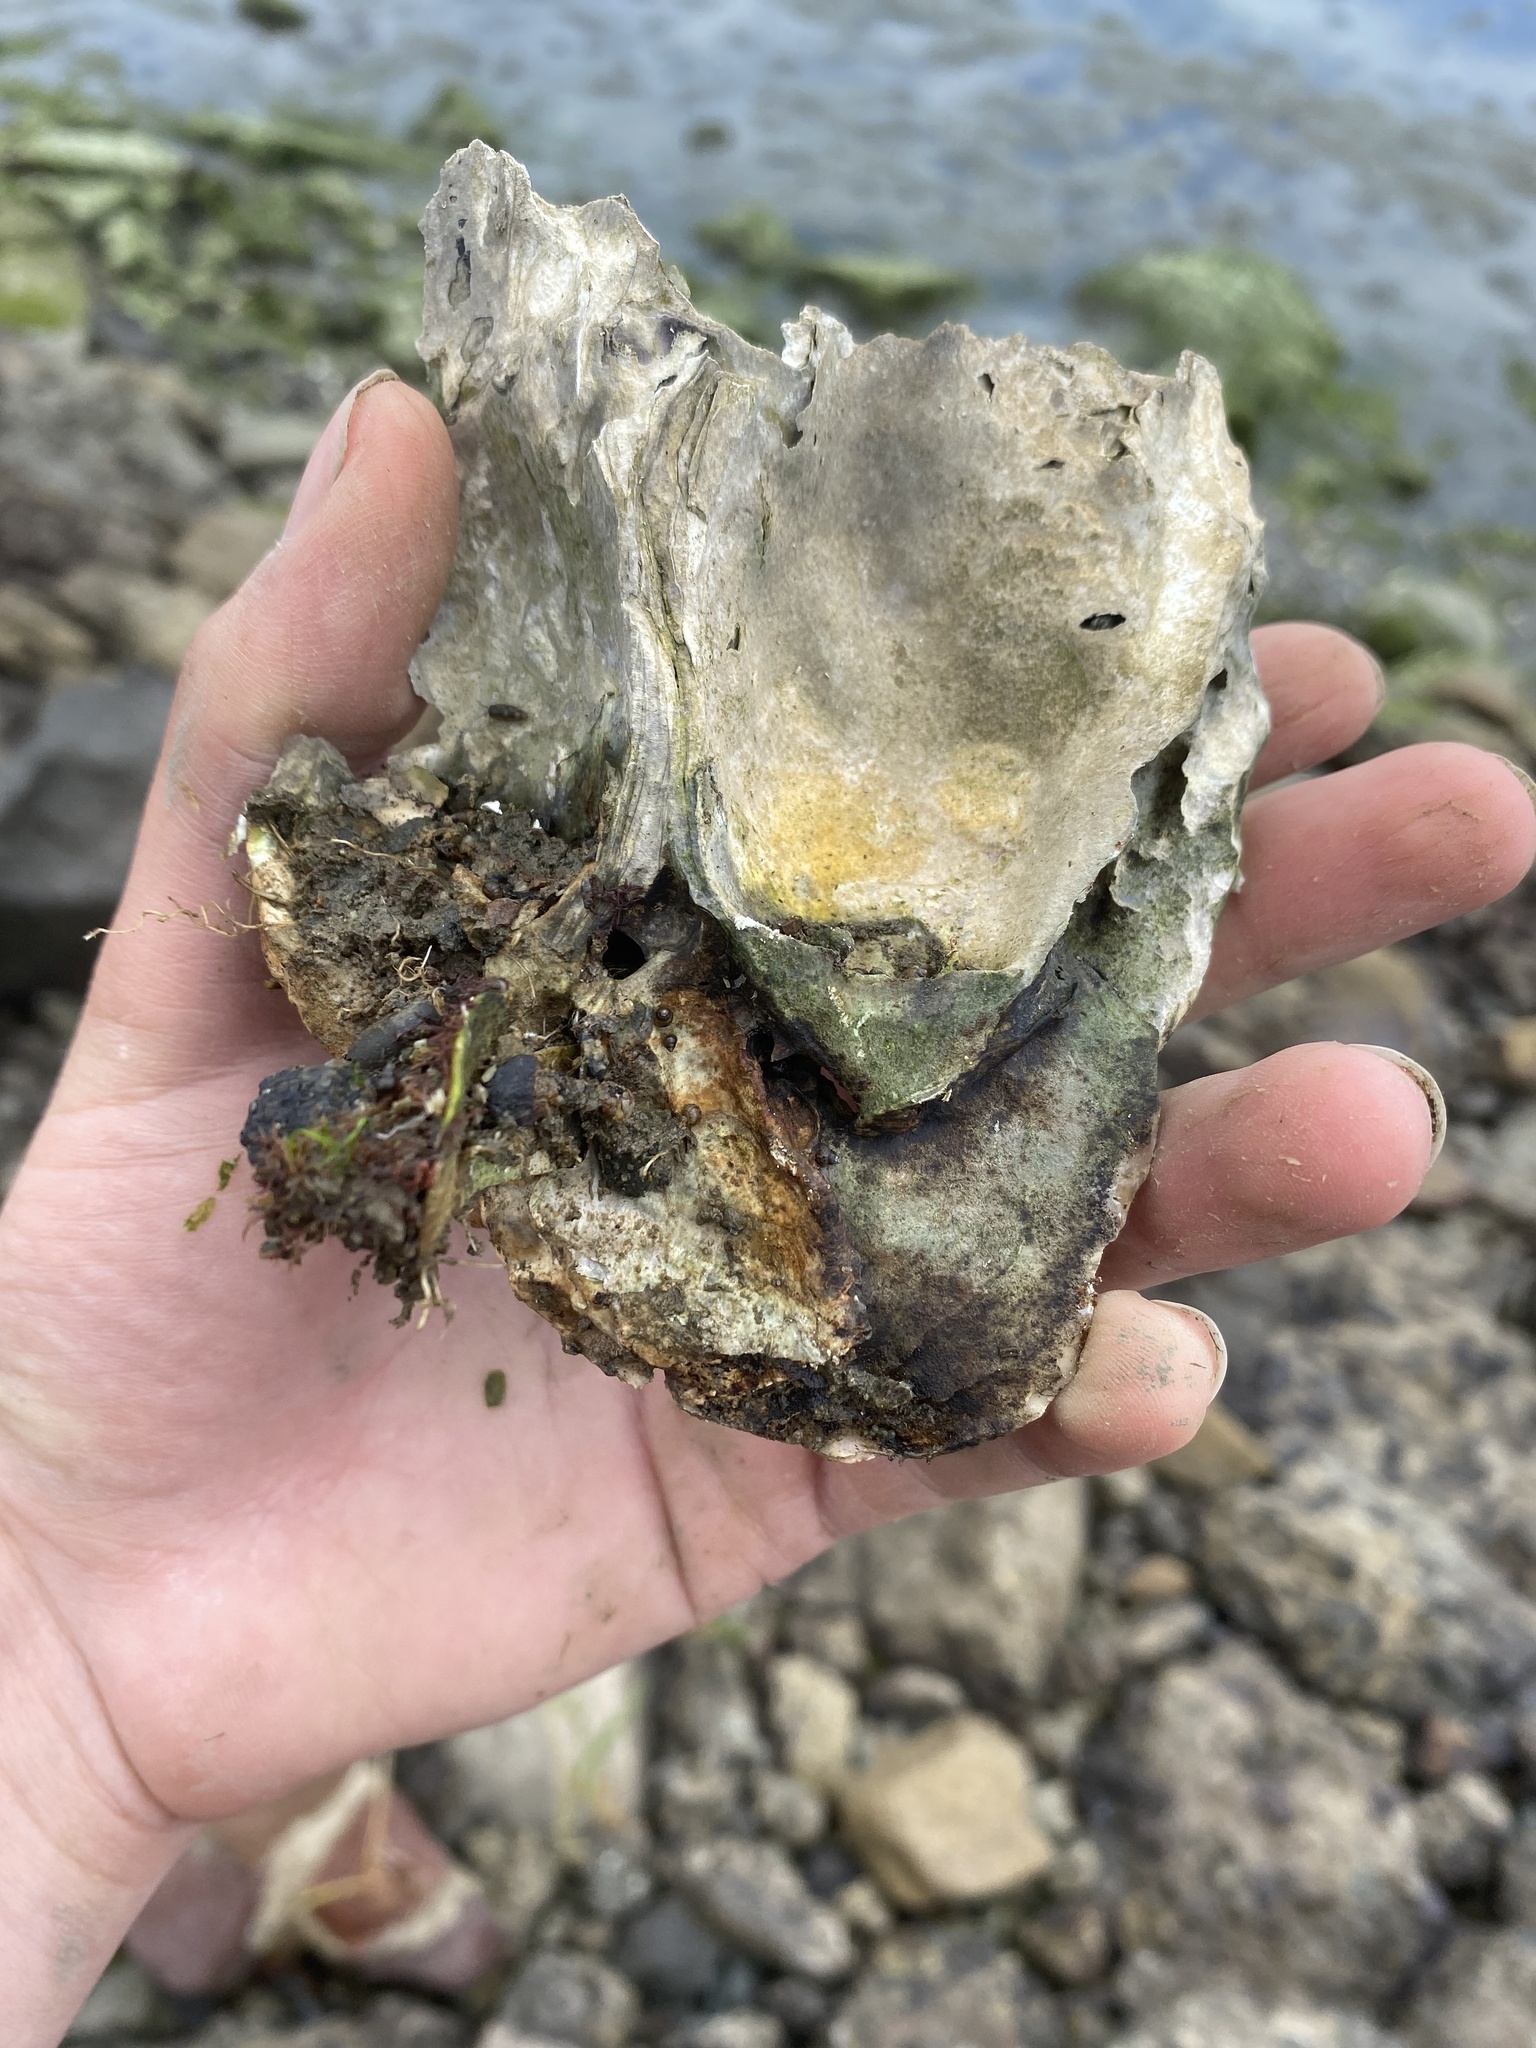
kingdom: Animalia
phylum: Mollusca
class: Bivalvia
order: Ostreida
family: Ostreidae
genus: Magallana
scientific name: Magallana gigas
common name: Pacific oyster
